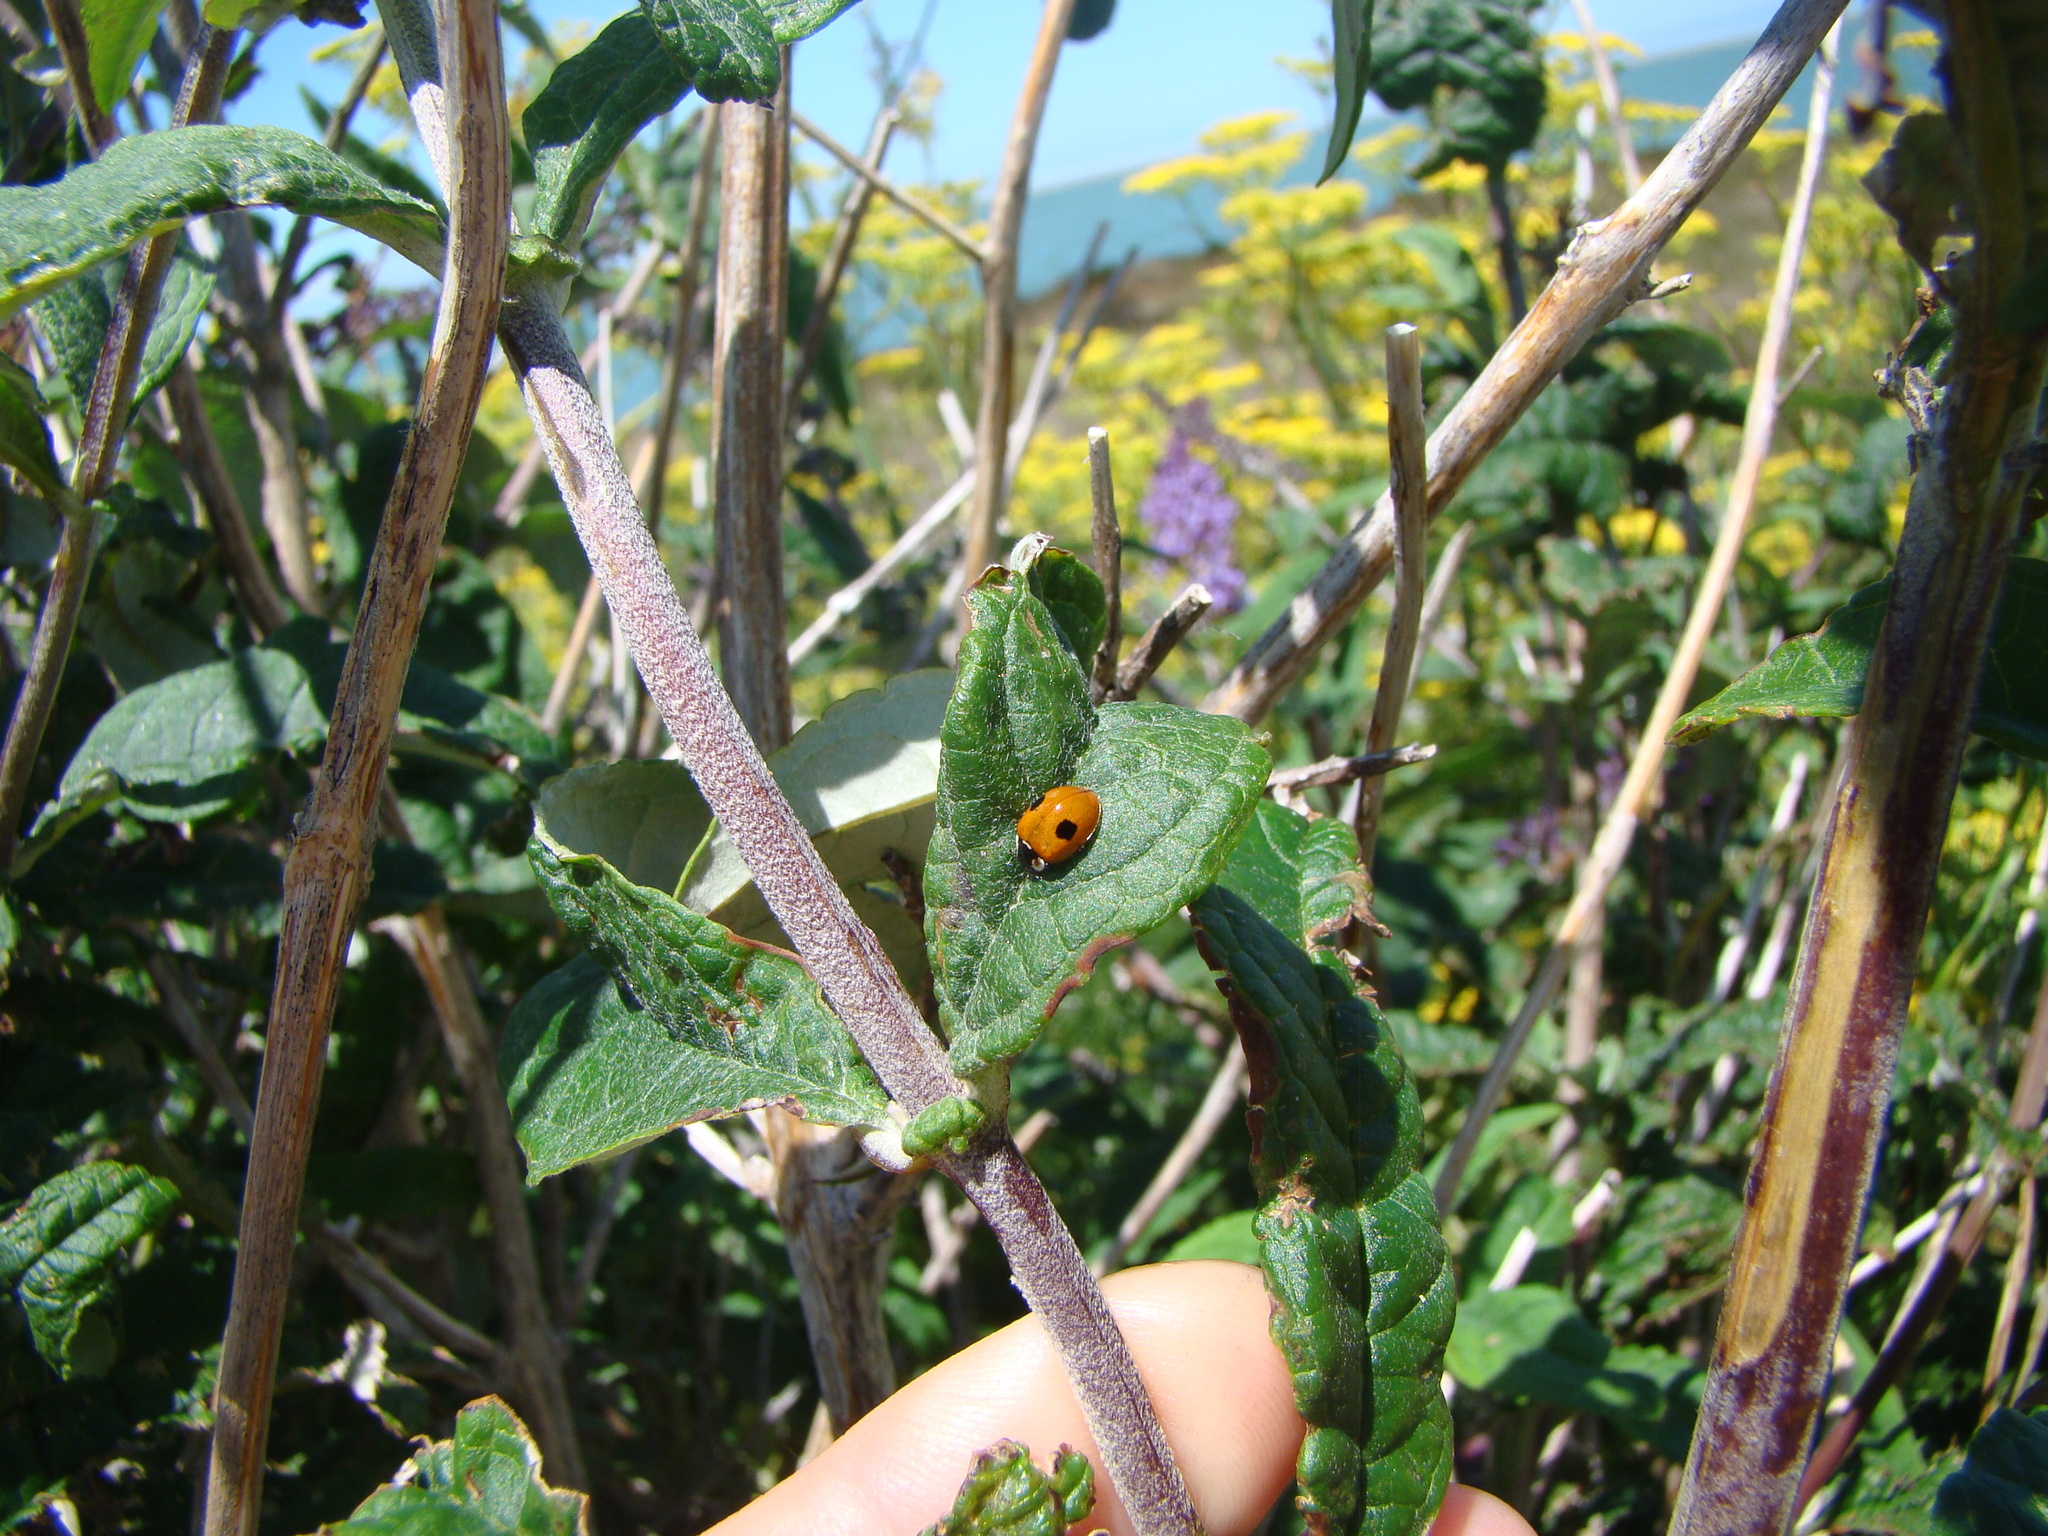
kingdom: Animalia
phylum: Arthropoda
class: Insecta
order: Coleoptera
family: Coccinellidae
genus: Adalia
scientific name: Adalia bipunctata
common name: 2-spot ladybird
